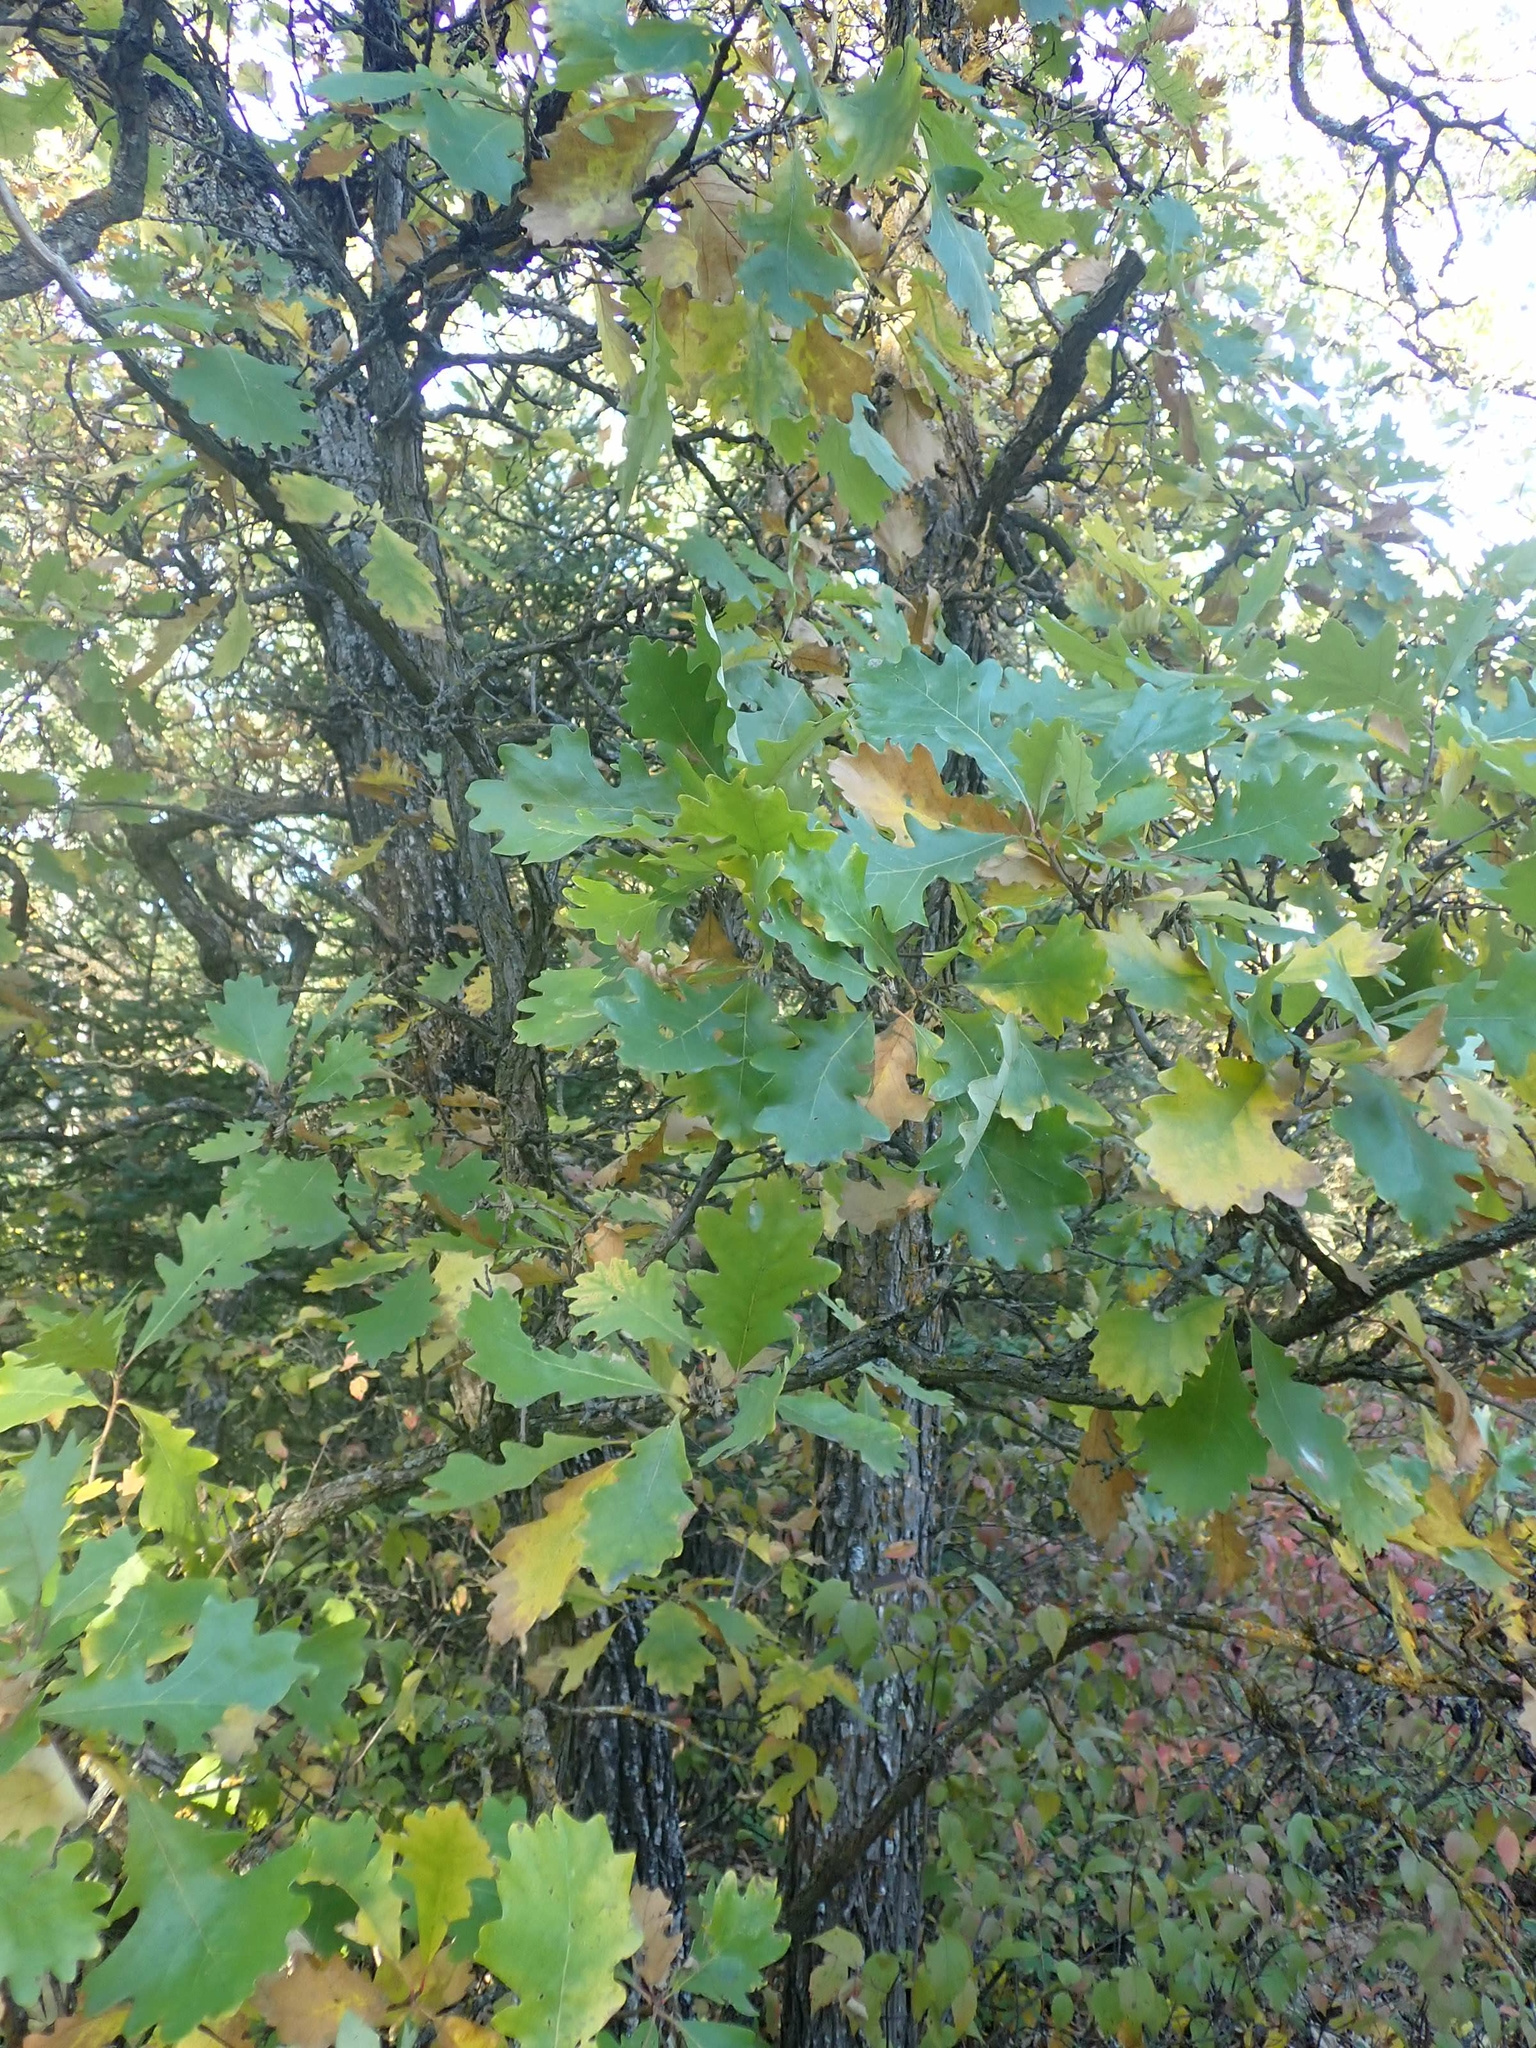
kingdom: Plantae
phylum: Tracheophyta
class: Magnoliopsida
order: Fagales
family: Fagaceae
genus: Quercus
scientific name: Quercus macrocarpa
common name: Bur oak
